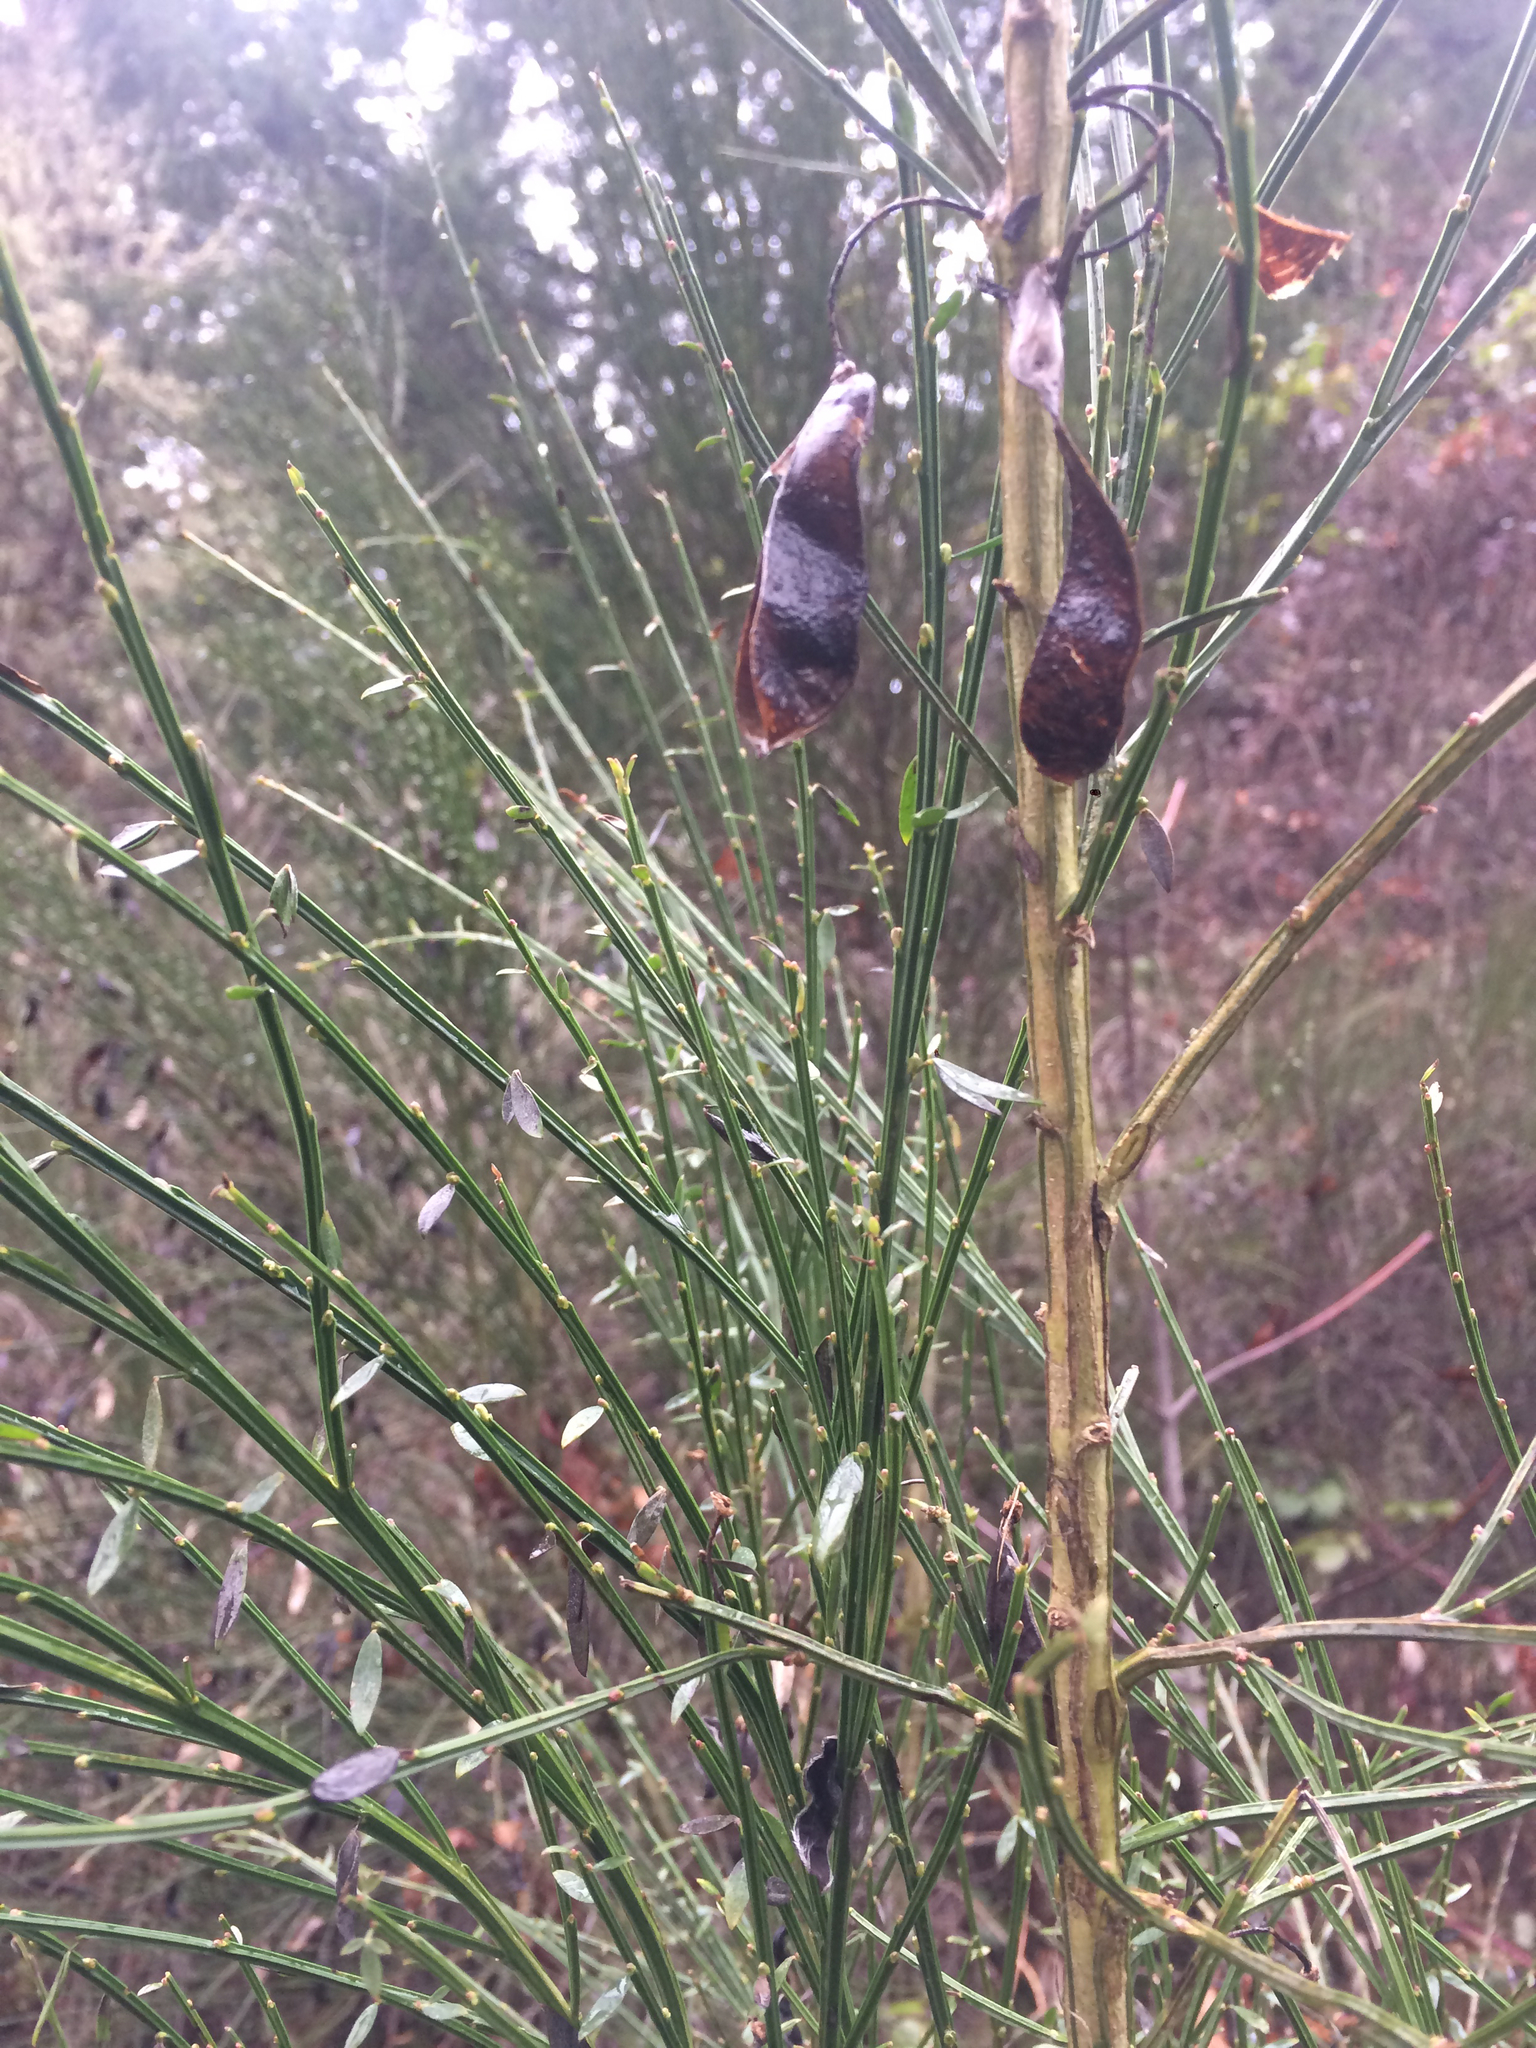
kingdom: Plantae
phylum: Tracheophyta
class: Magnoliopsida
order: Fabales
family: Fabaceae
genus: Cytisus
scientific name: Cytisus scoparius
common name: Scotch broom
